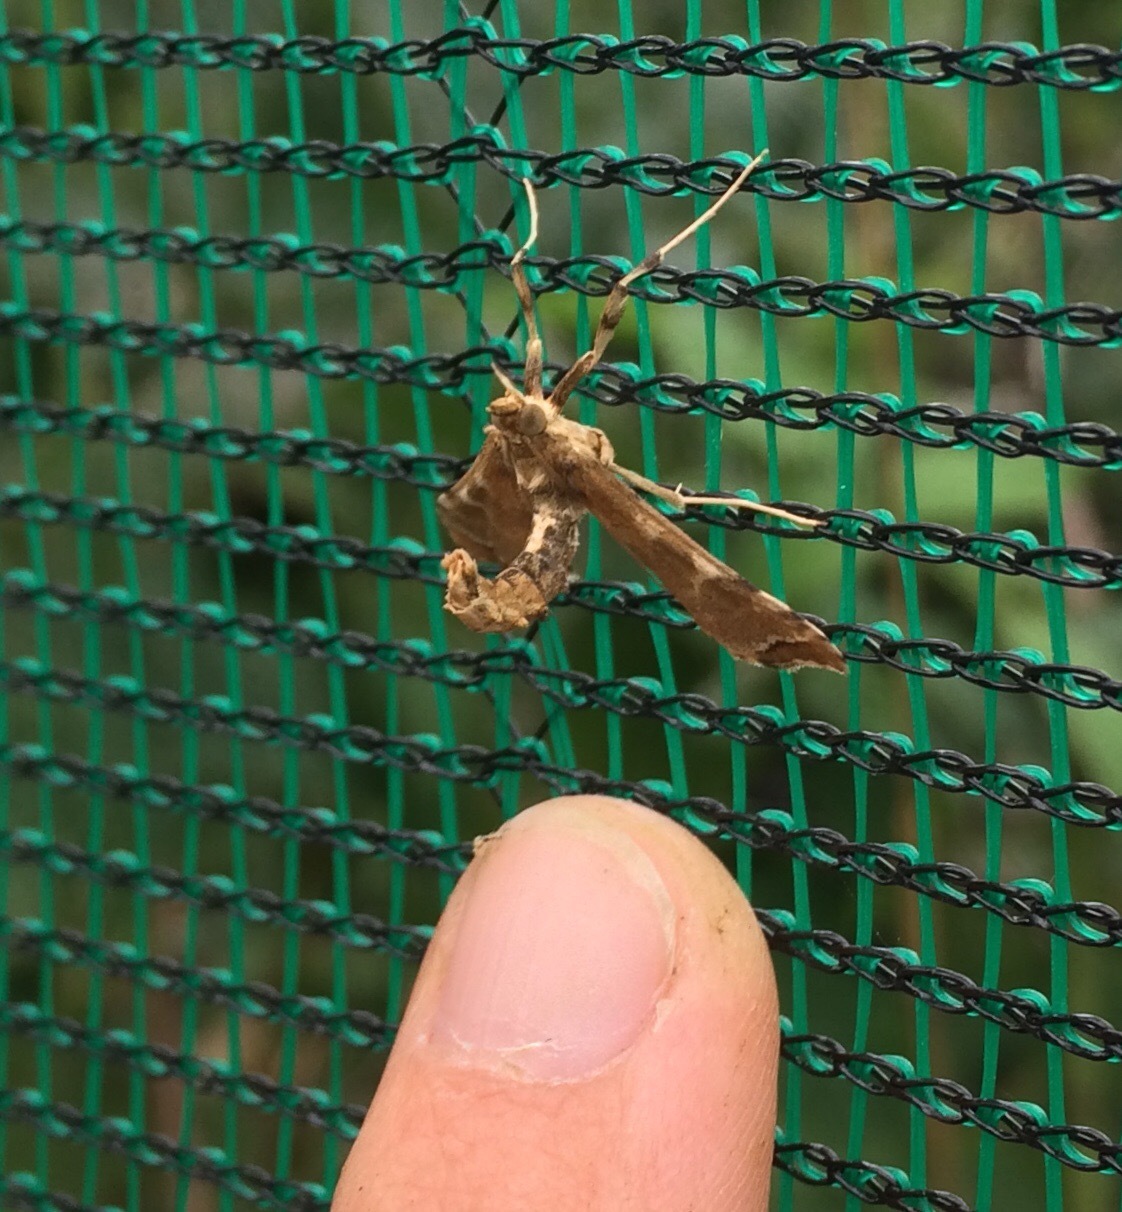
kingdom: Animalia
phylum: Arthropoda
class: Insecta
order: Lepidoptera
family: Crambidae
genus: Sceliodes
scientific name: Sceliodes cordalis
